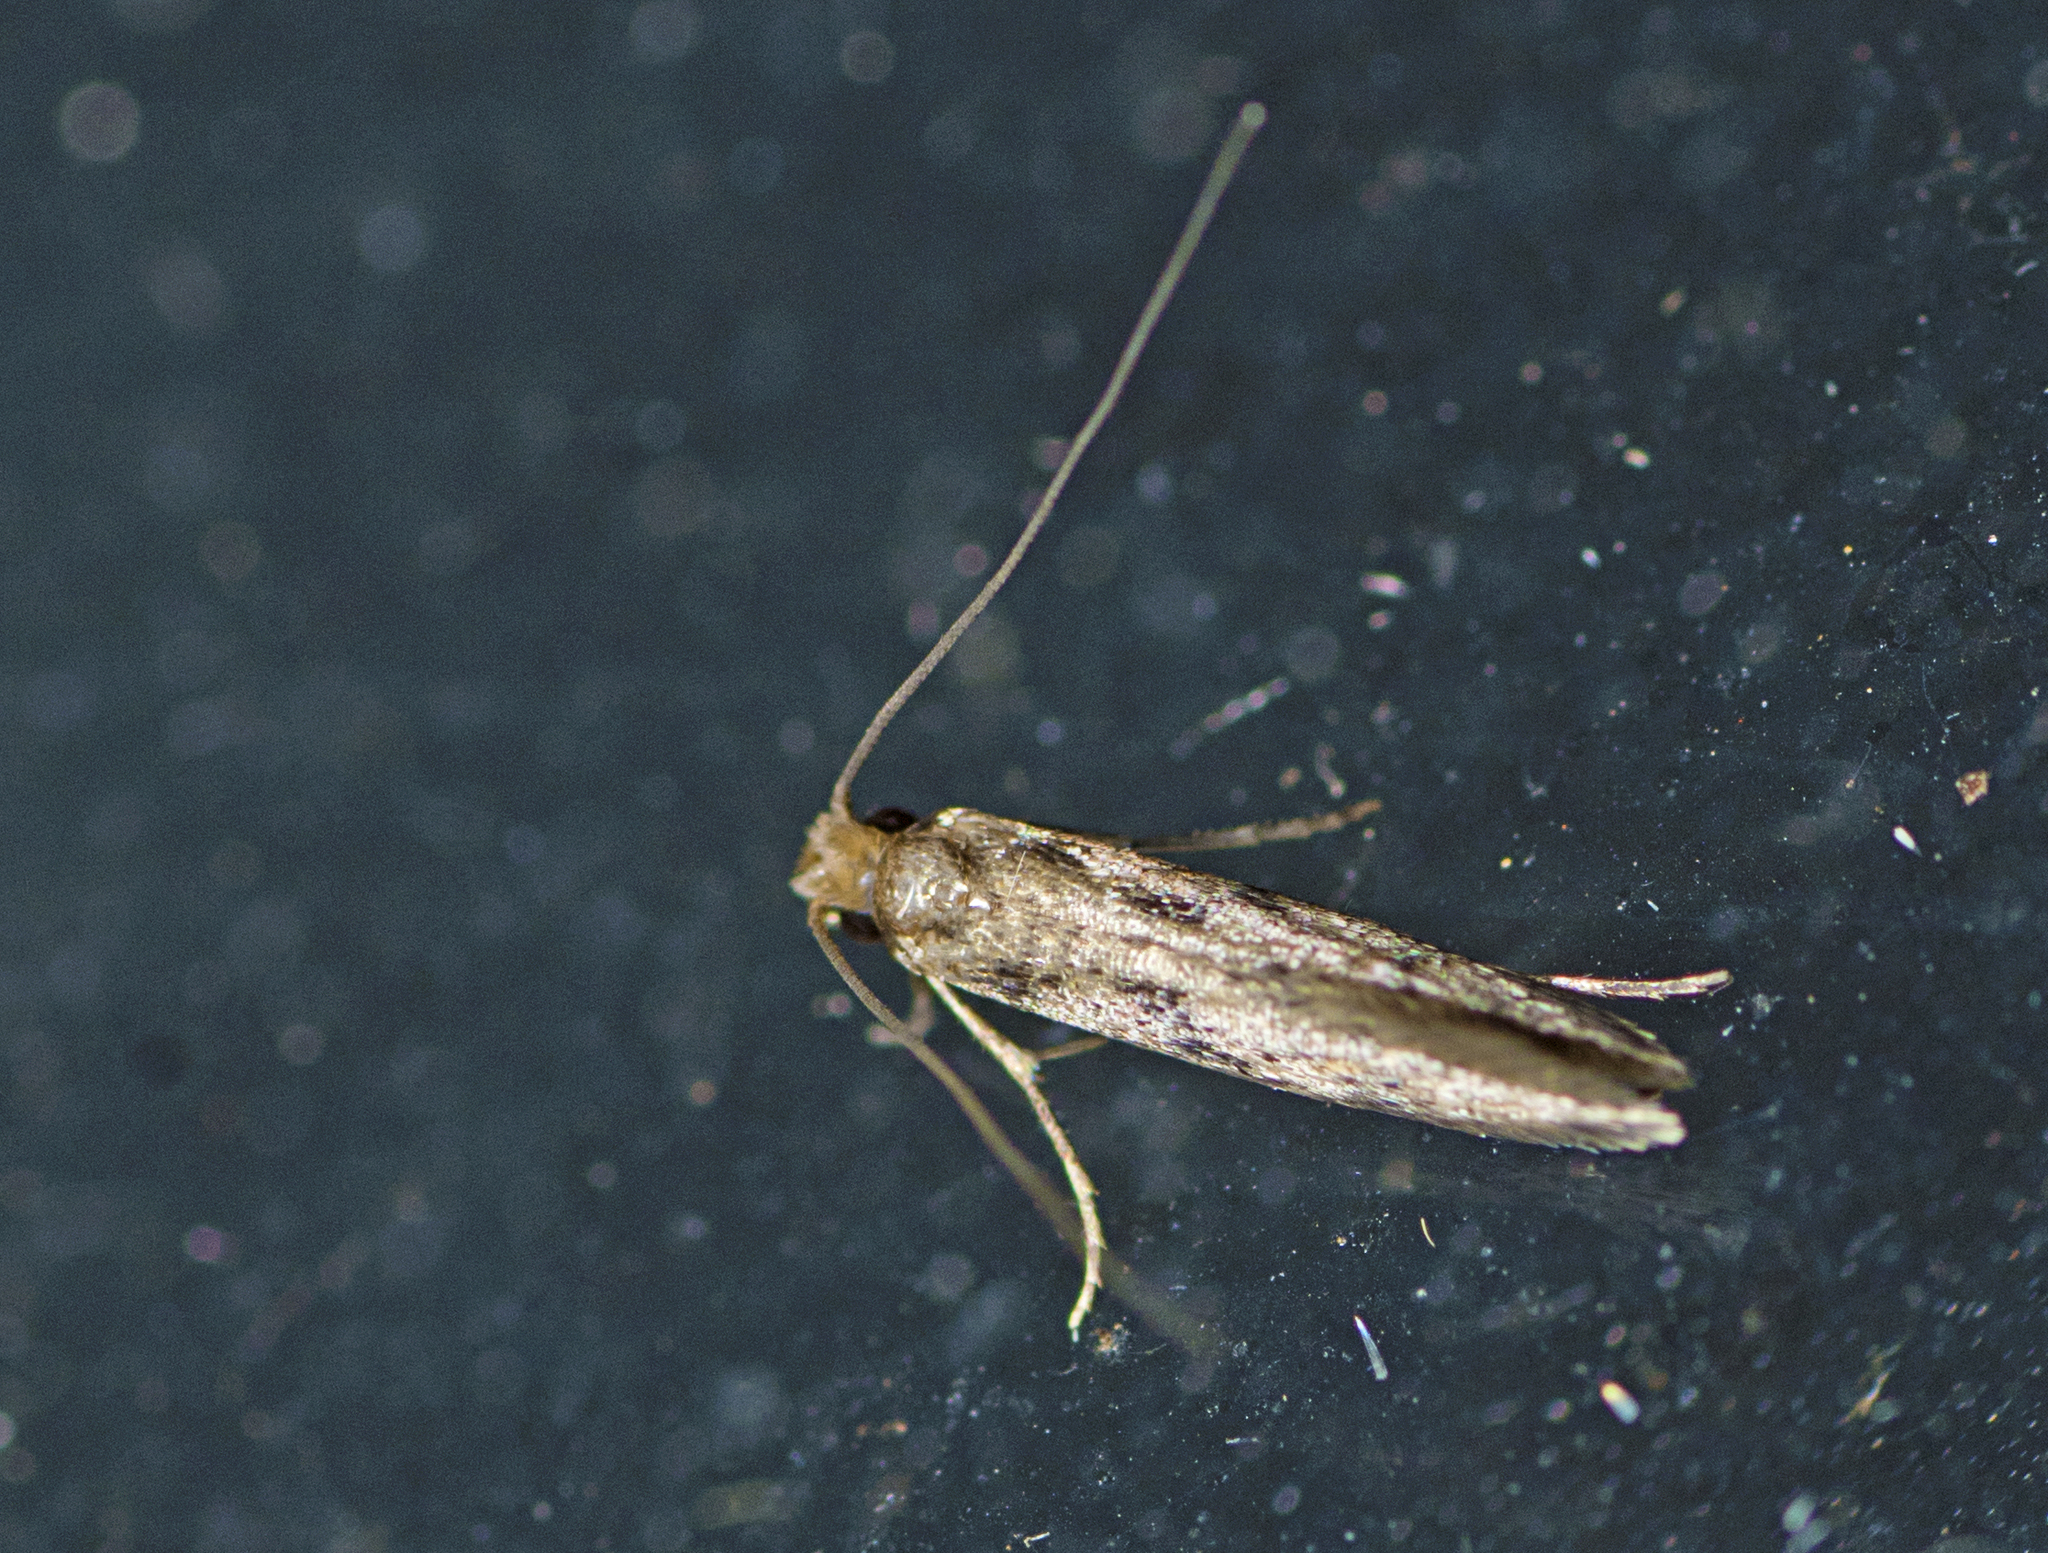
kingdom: Animalia
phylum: Arthropoda
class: Insecta
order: Lepidoptera
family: Tineidae
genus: Opogona
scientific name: Opogona omoscopa
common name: Moth
